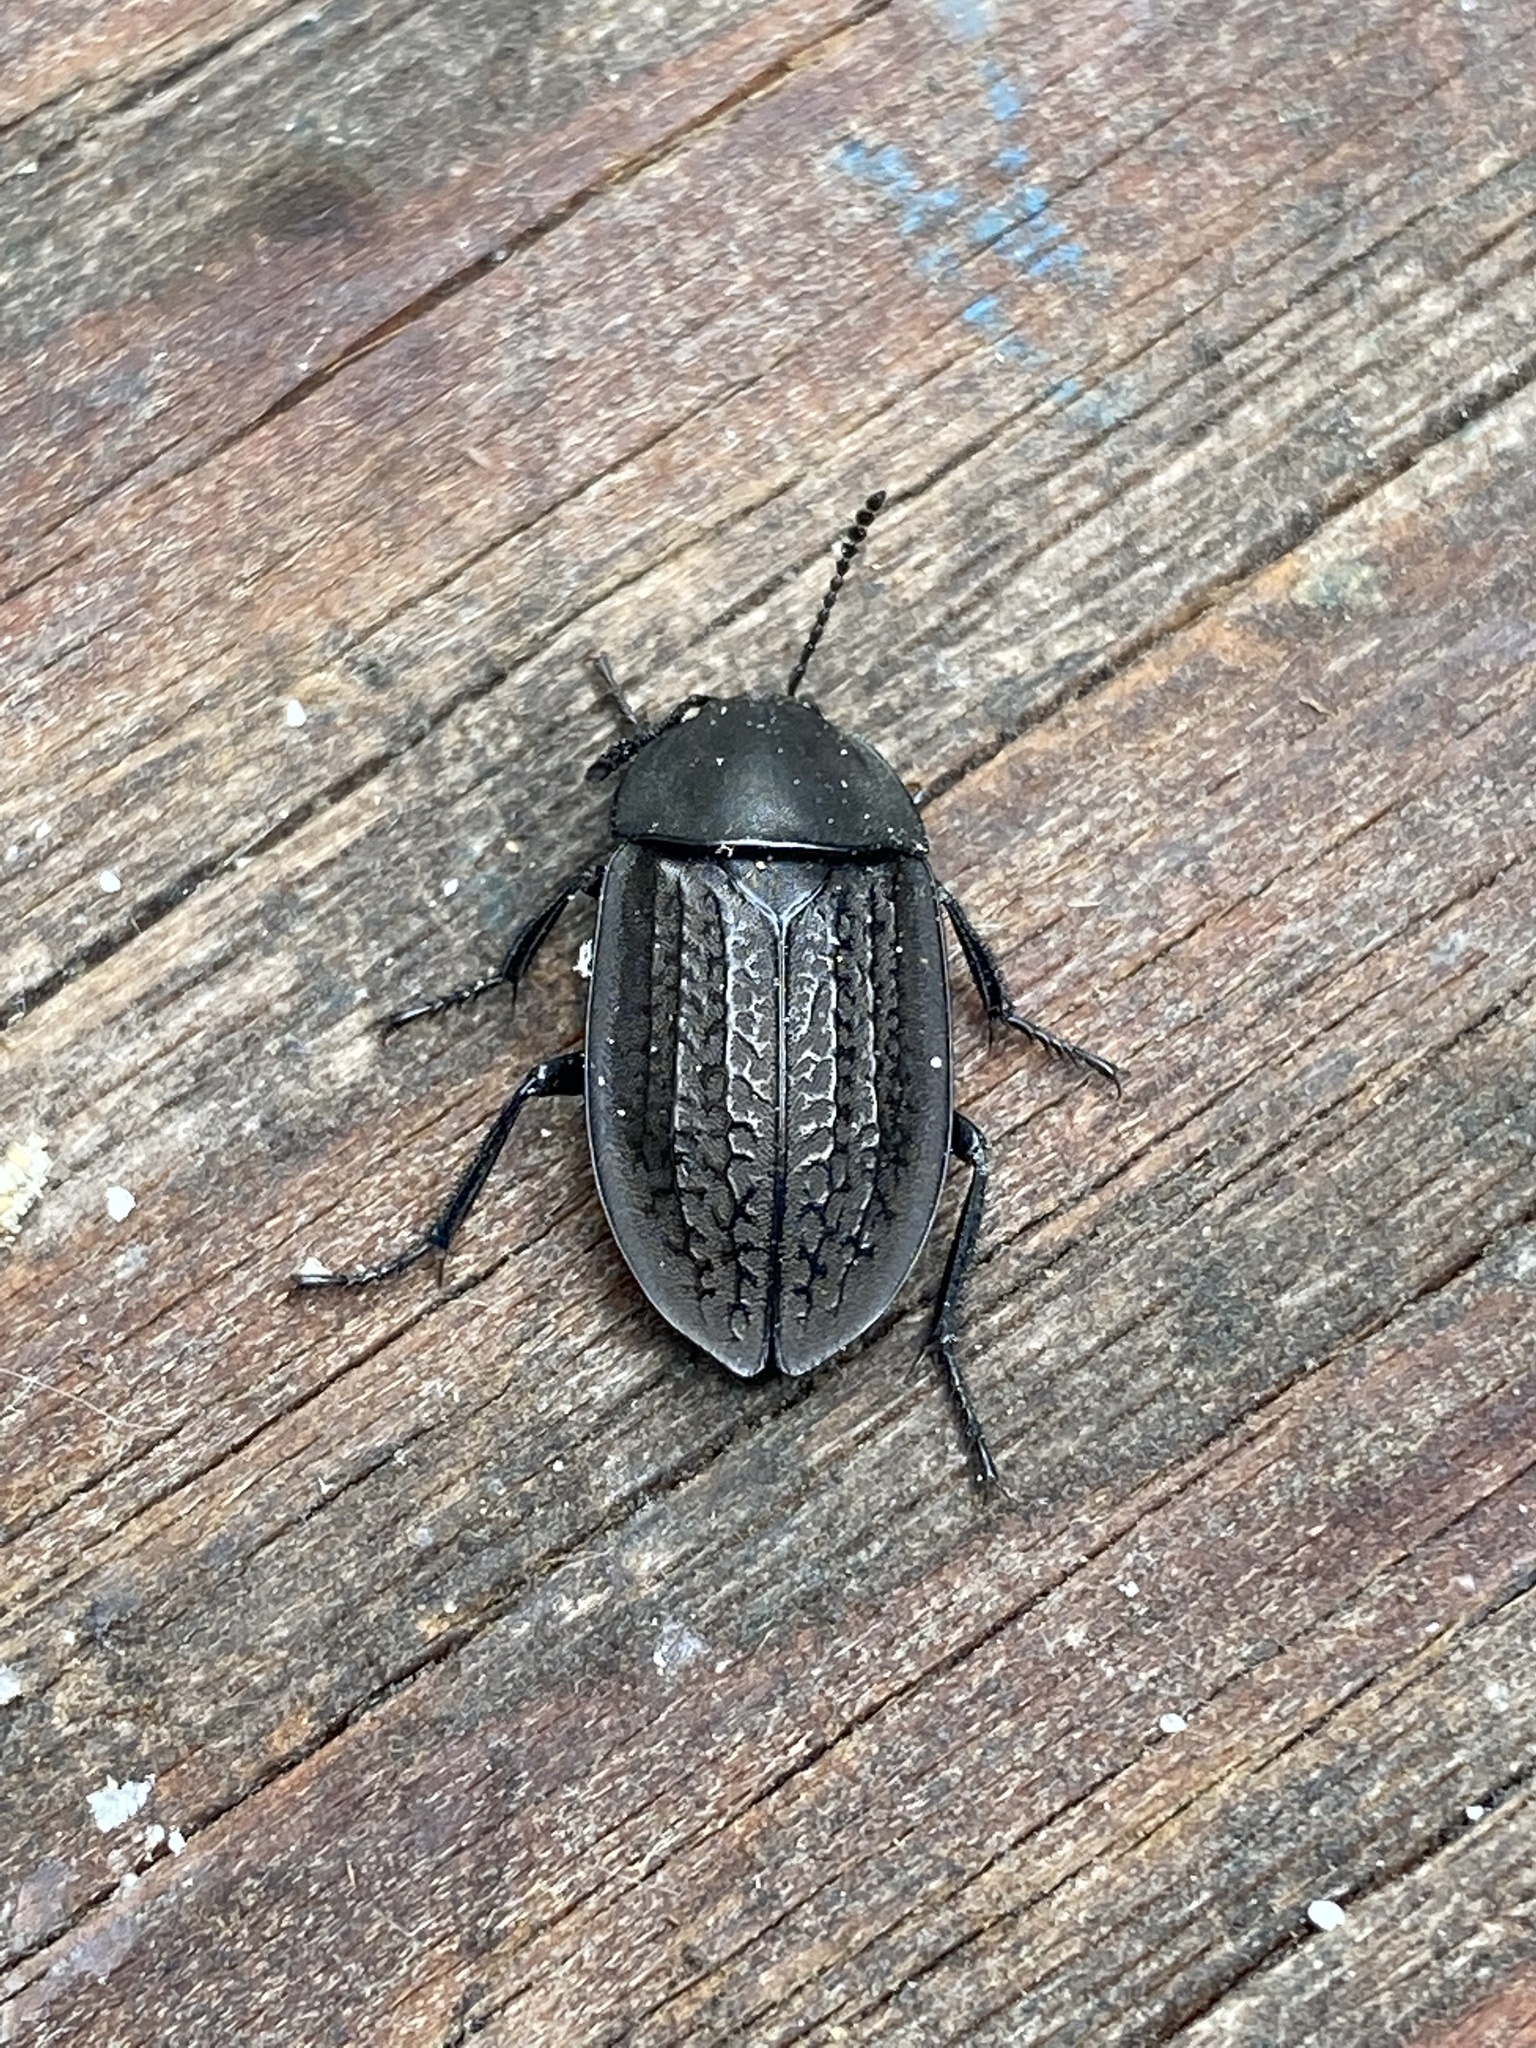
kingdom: Animalia
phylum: Arthropoda
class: Insecta
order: Coleoptera
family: Staphylinidae
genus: Heterosilpha
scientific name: Heterosilpha ramosa
